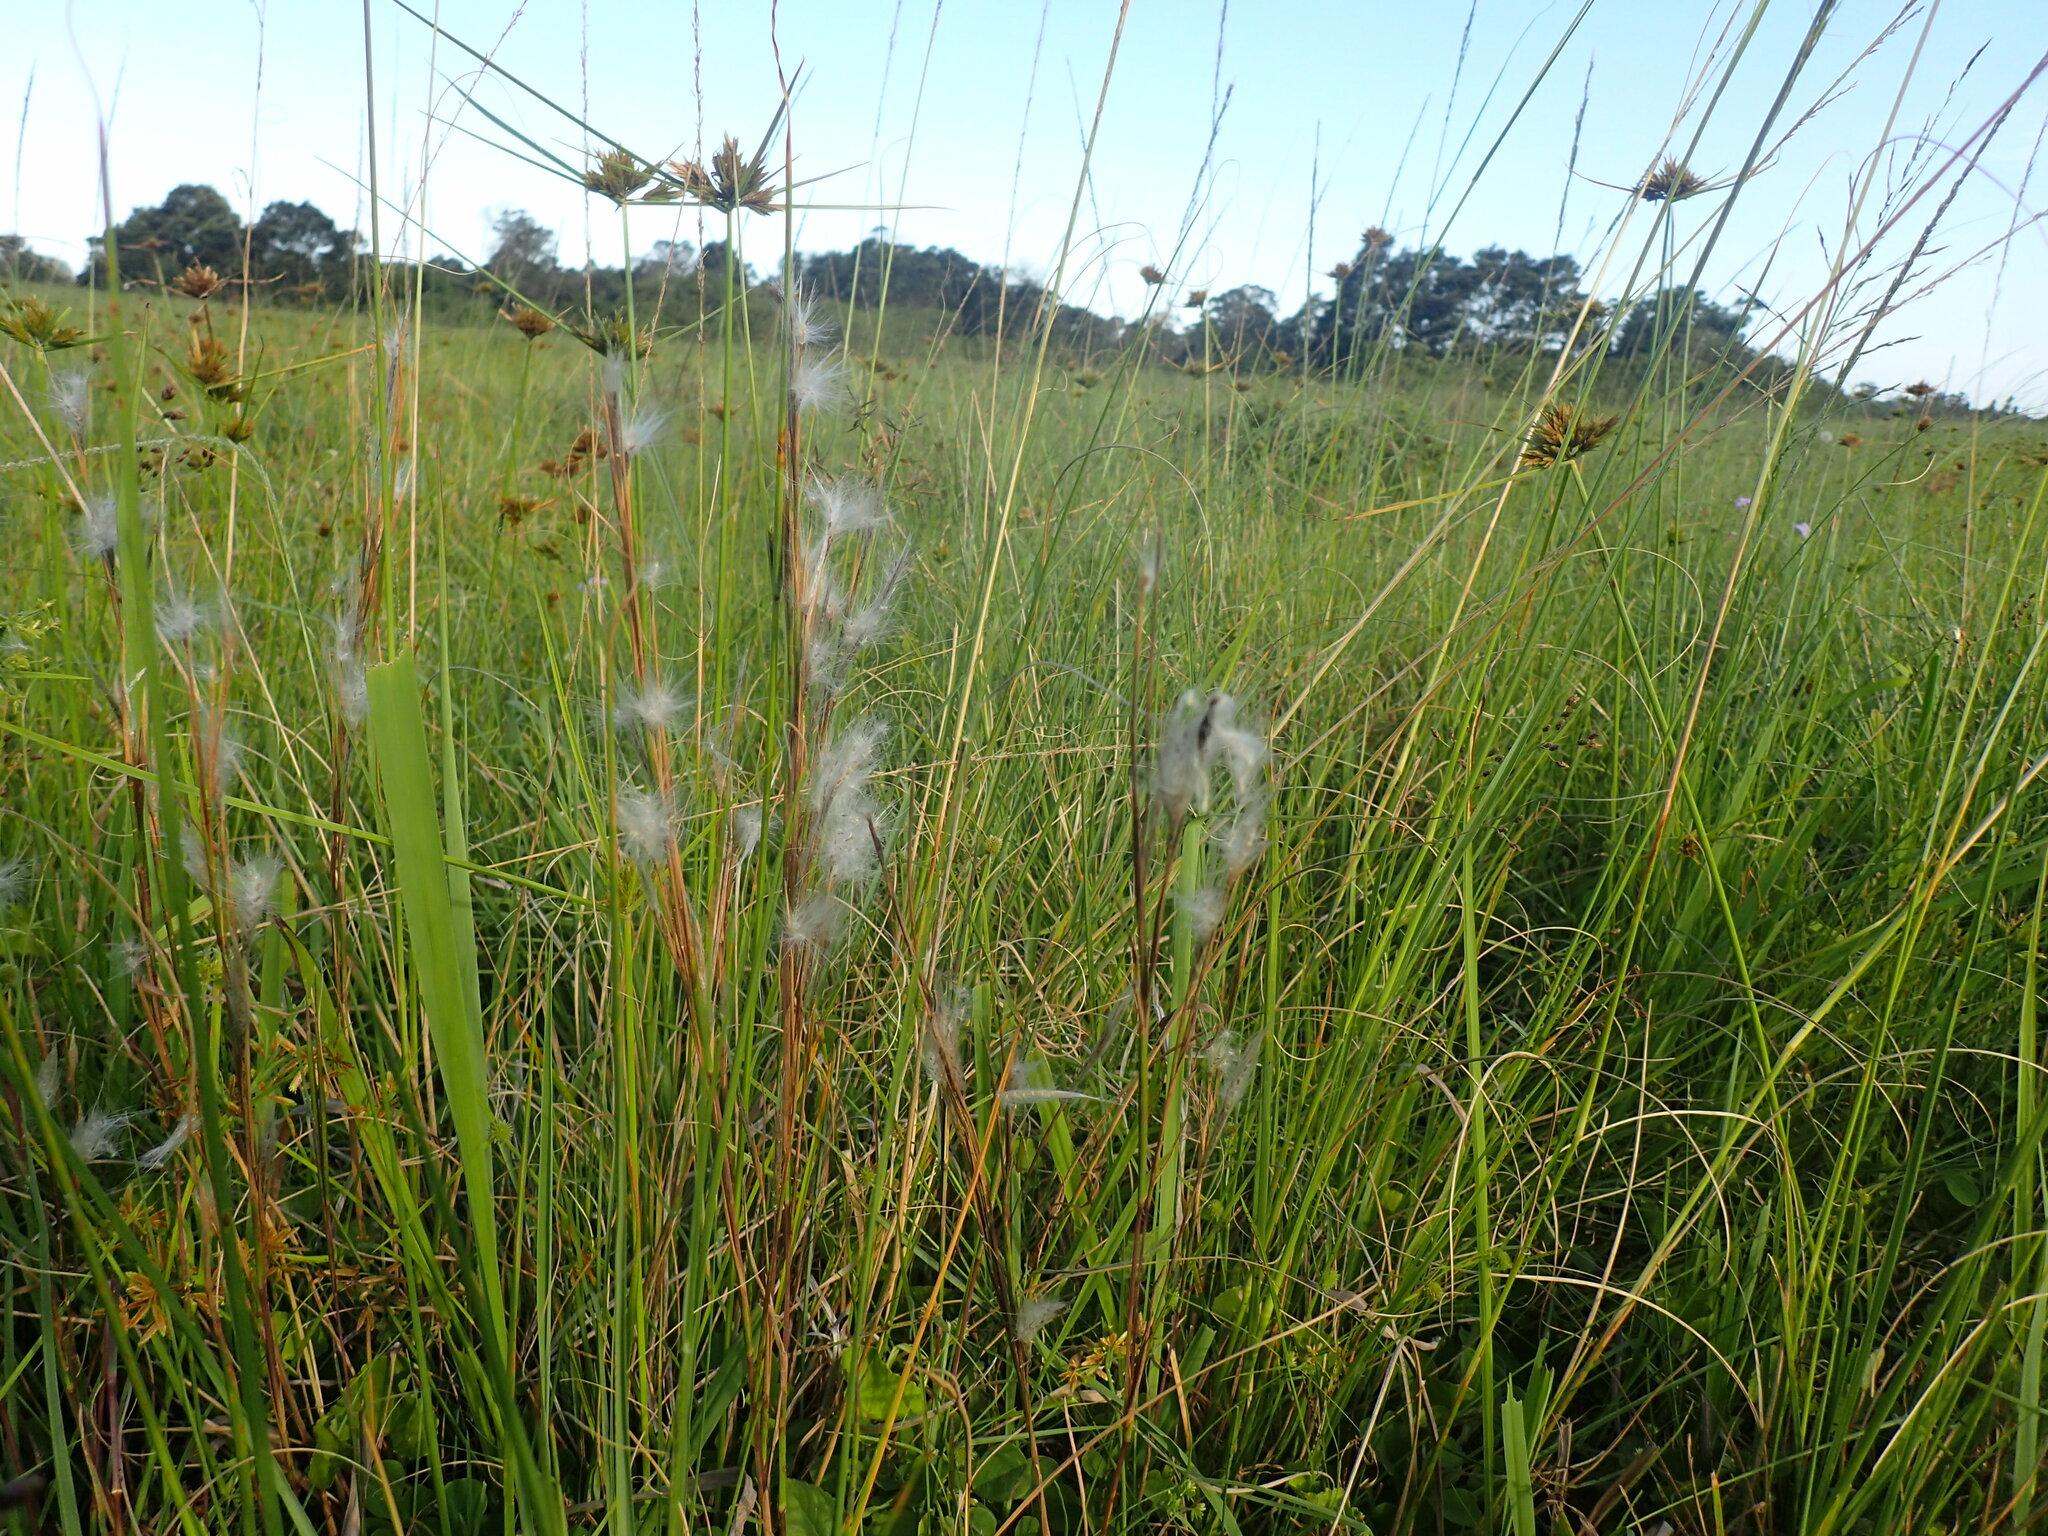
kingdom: Plantae
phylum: Tracheophyta
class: Liliopsida
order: Poales
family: Poaceae
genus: Andropogon
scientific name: Andropogon eucomus
